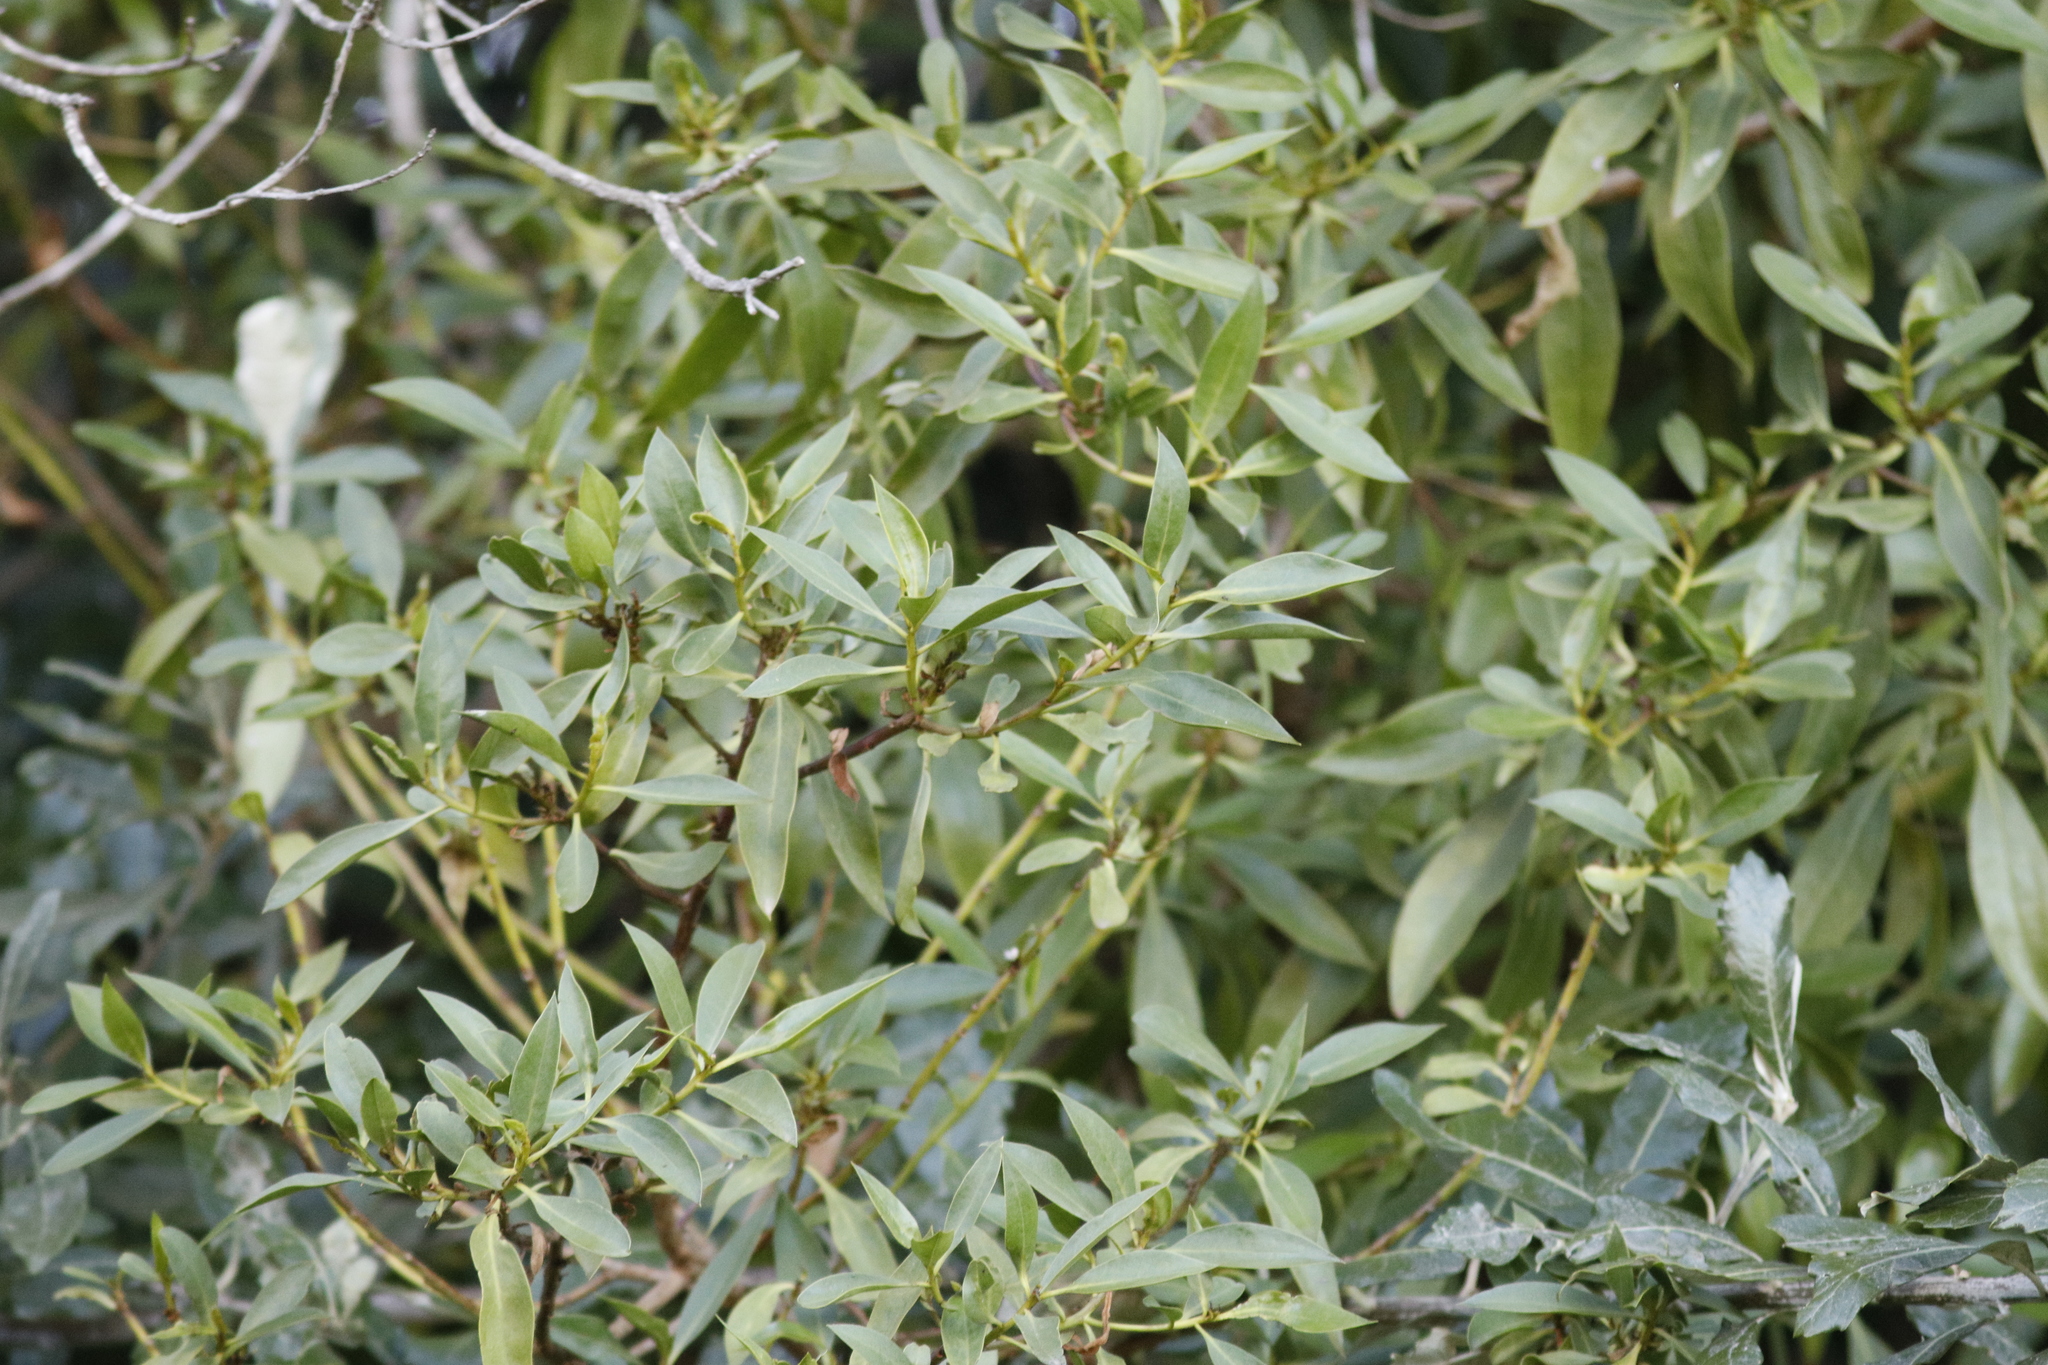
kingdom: Plantae
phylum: Tracheophyta
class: Magnoliopsida
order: Lamiales
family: Scrophulariaceae
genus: Myoporum
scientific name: Myoporum montanum
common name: Waterbush
